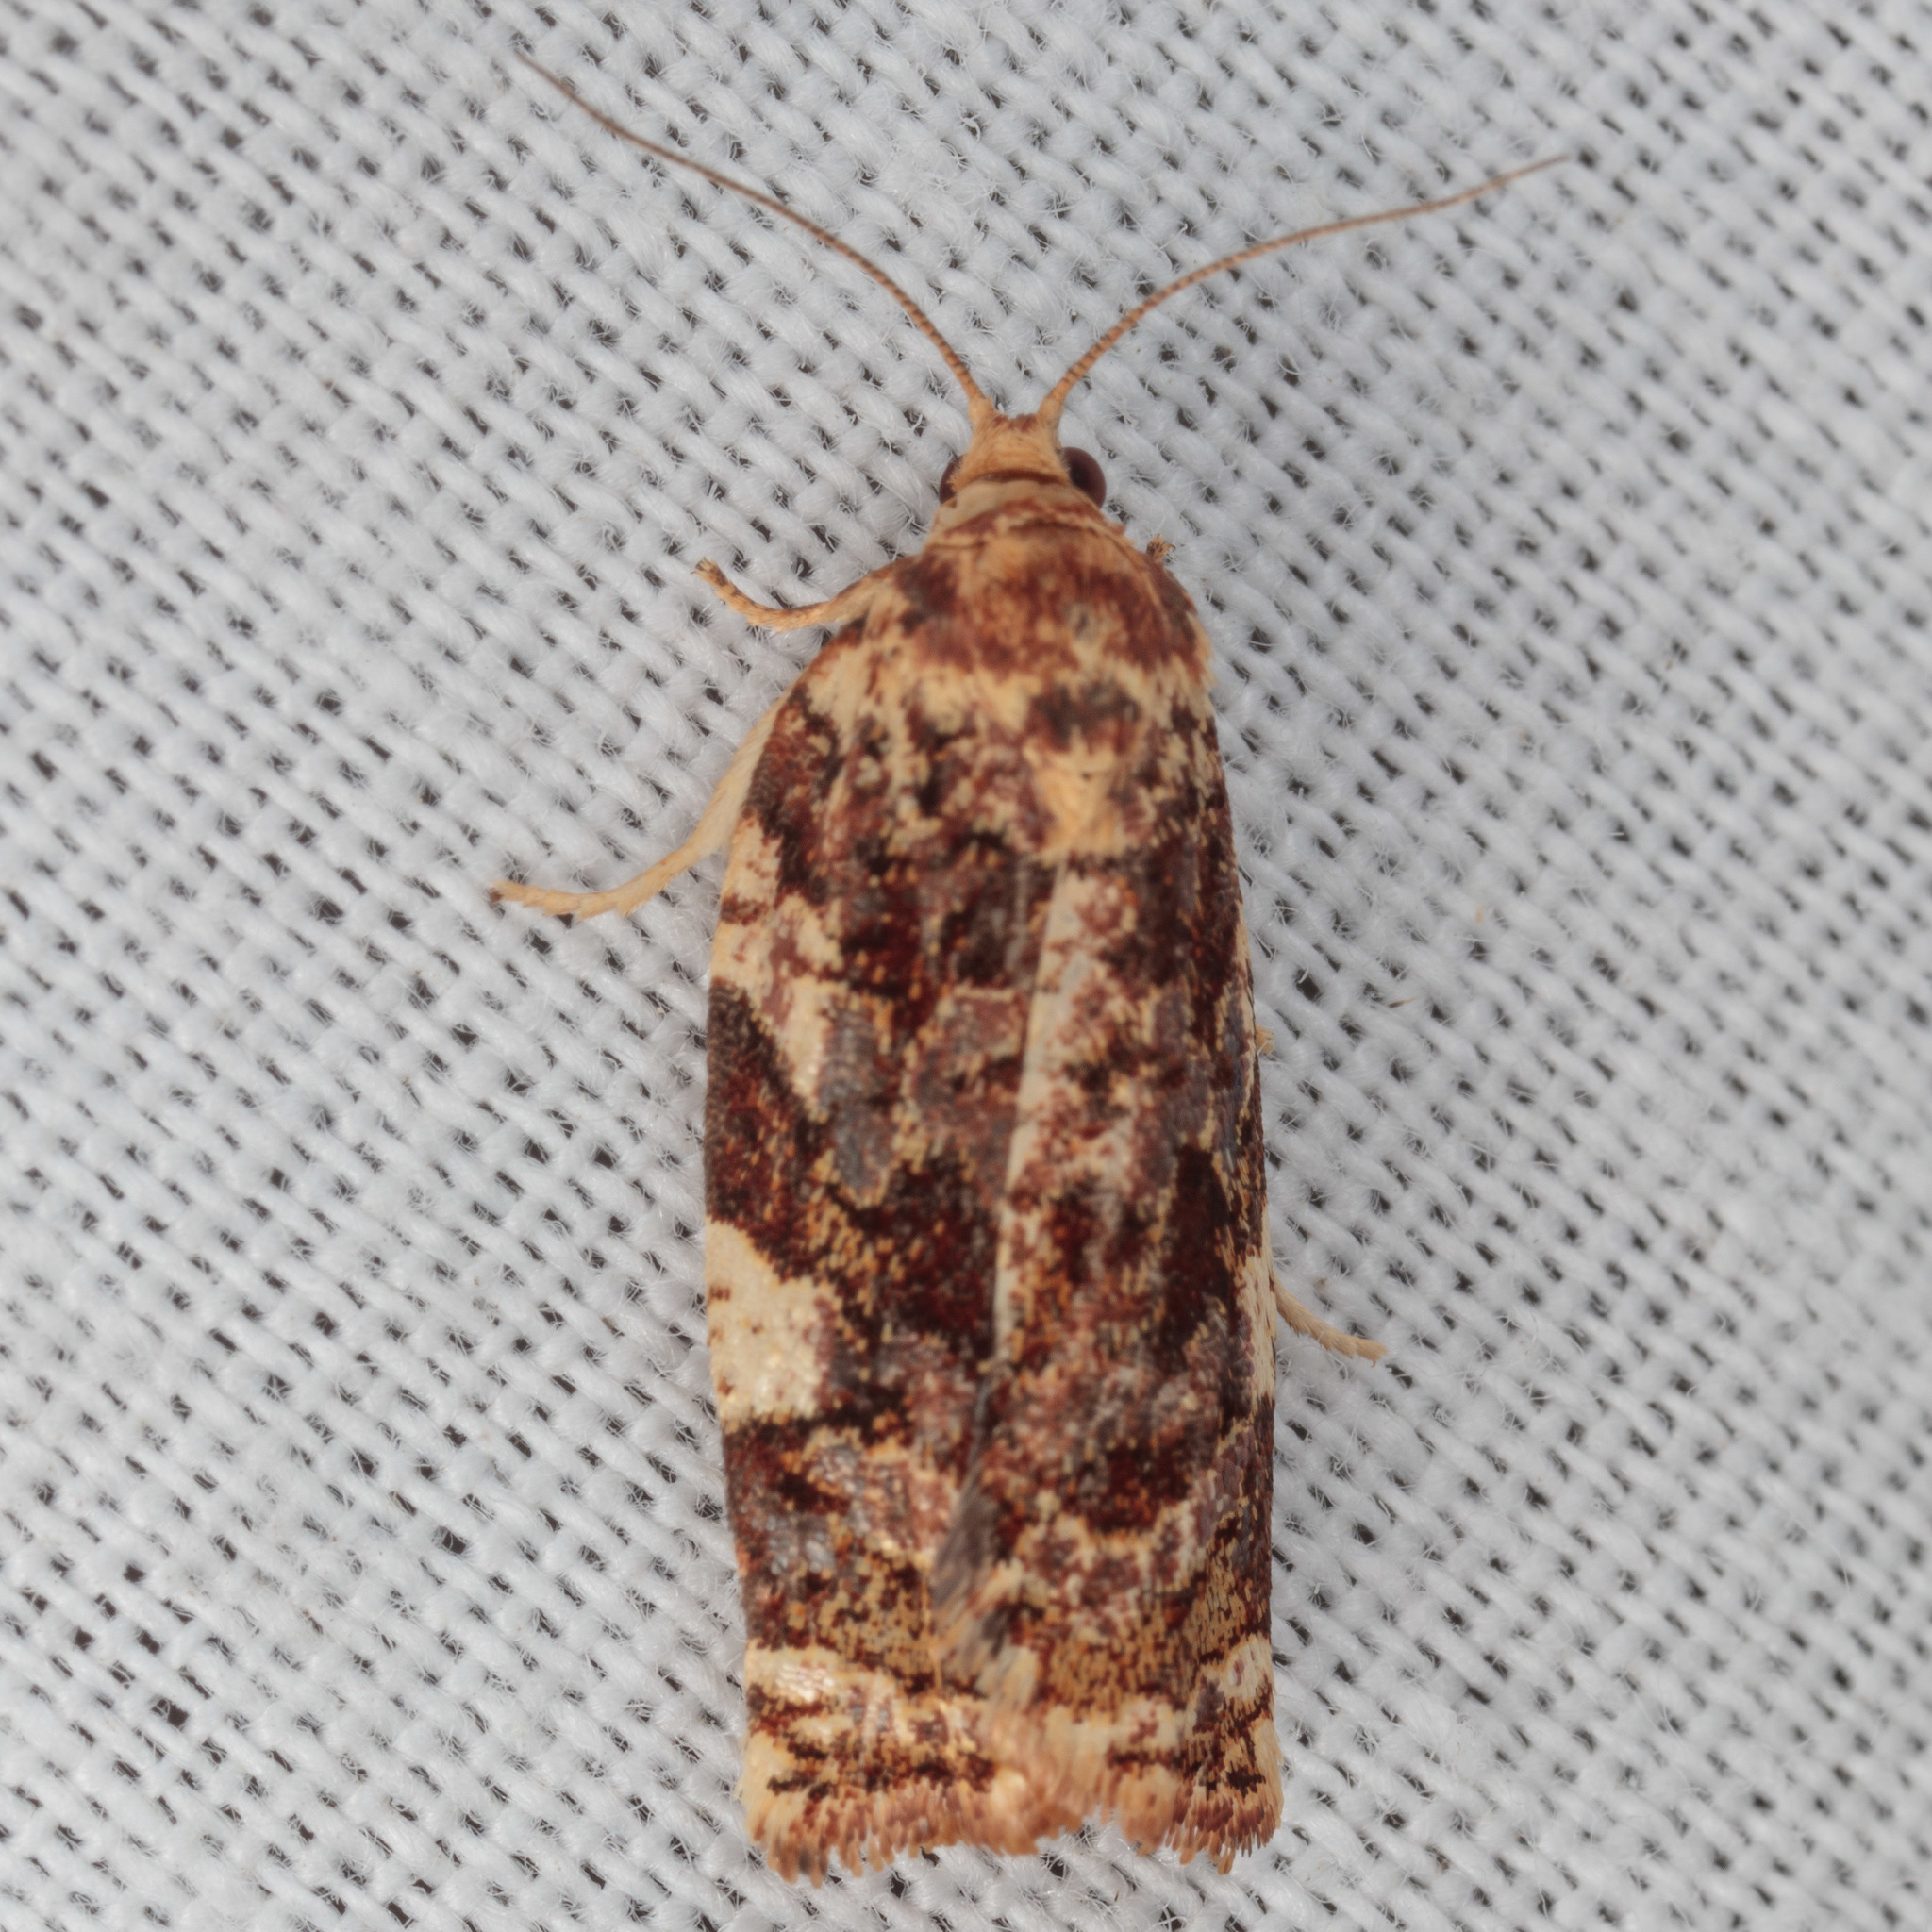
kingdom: Animalia
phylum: Arthropoda
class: Insecta
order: Lepidoptera
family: Tortricidae
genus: Archips
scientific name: Archips argyrospila
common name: Fruit-tree leafroller moth
